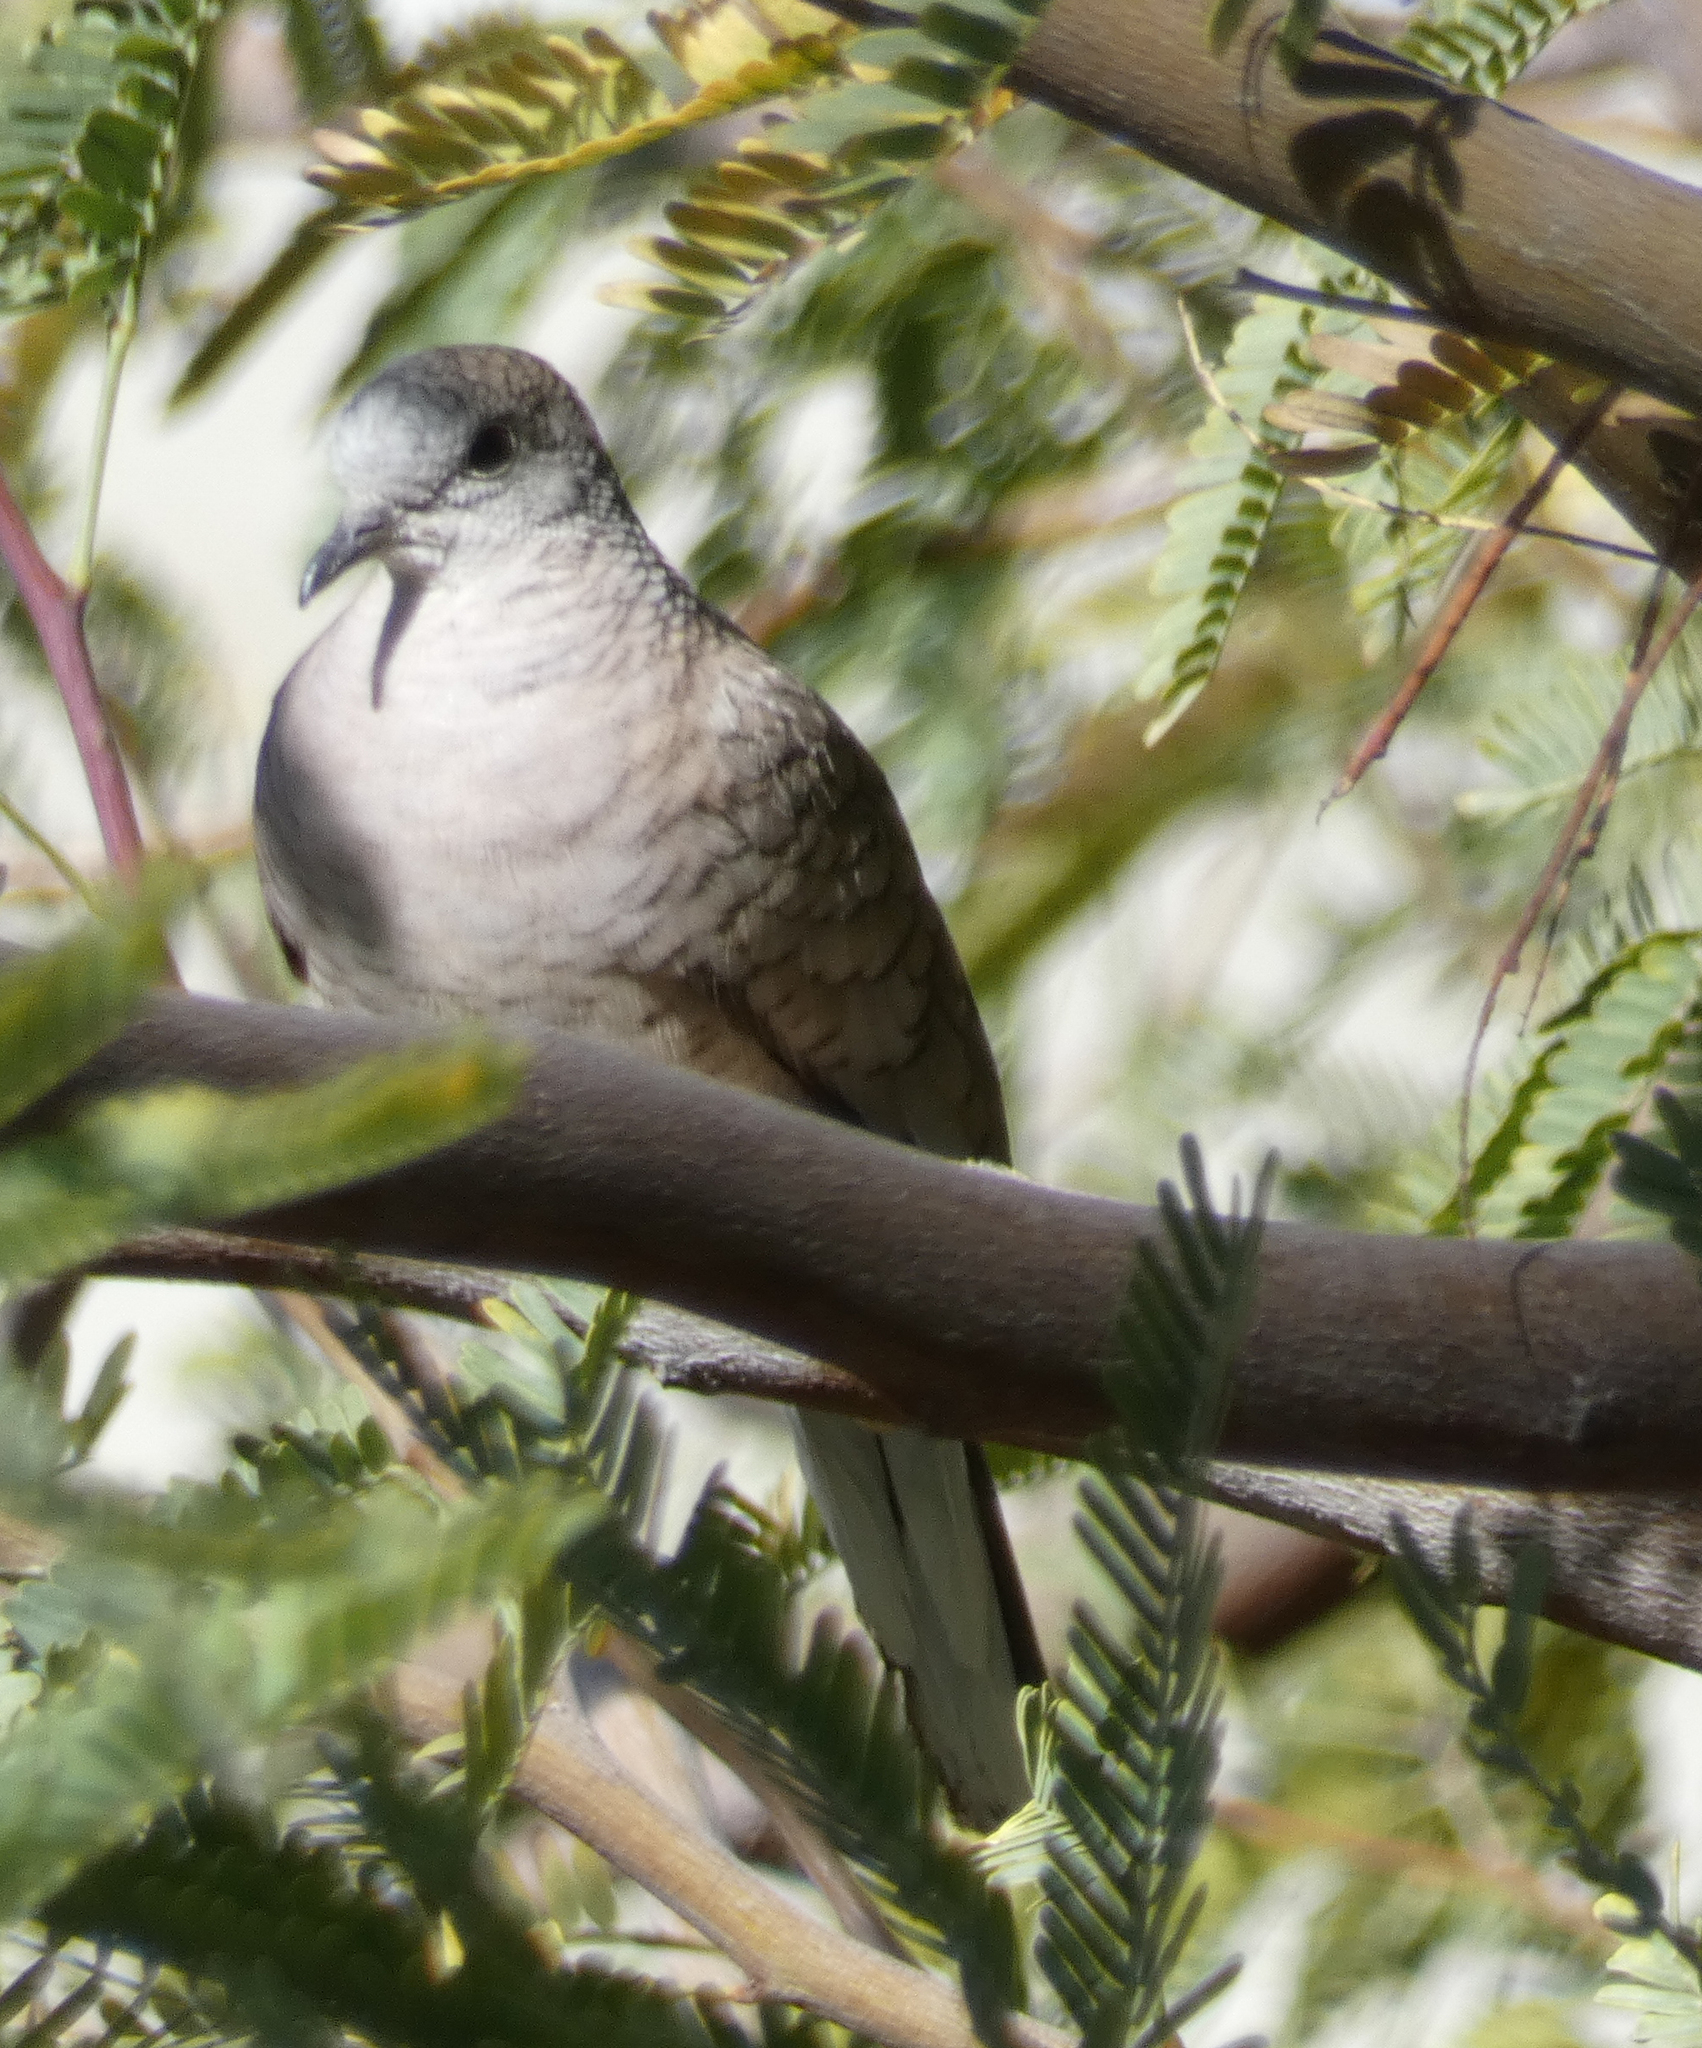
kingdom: Animalia
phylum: Chordata
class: Aves
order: Columbiformes
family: Columbidae
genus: Columbina
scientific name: Columbina inca
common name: Inca dove
